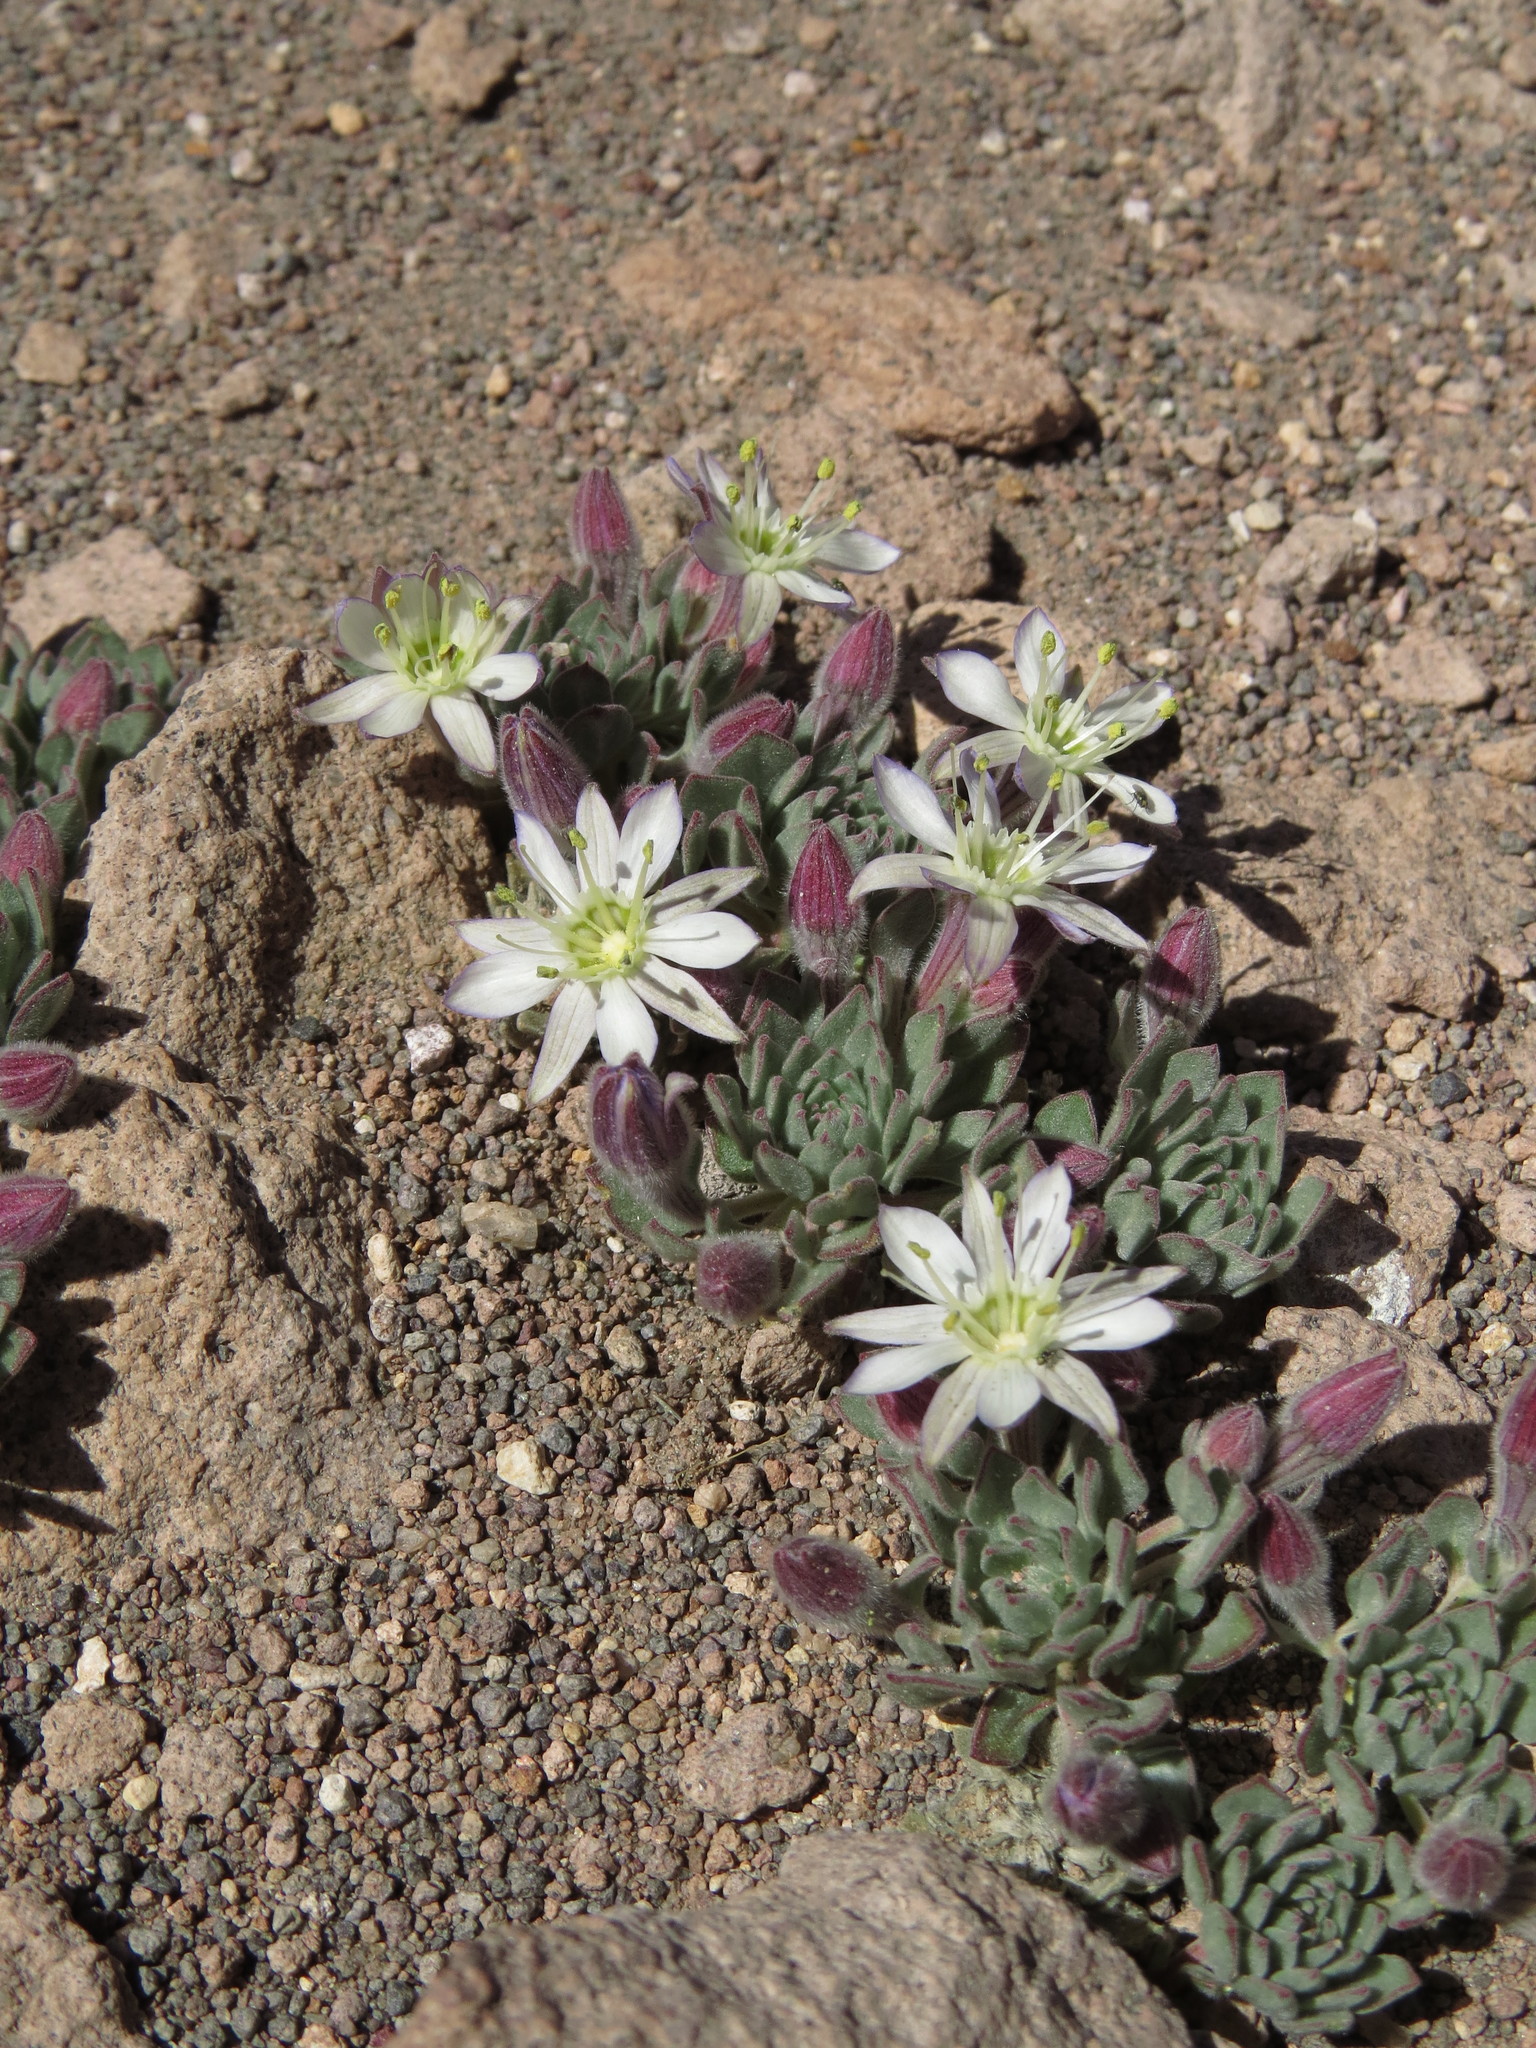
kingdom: Plantae
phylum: Tracheophyta
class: Magnoliopsida
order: Malpighiales
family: Malesherbiaceae
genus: Malesherbia
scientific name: Malesherbia lactea
